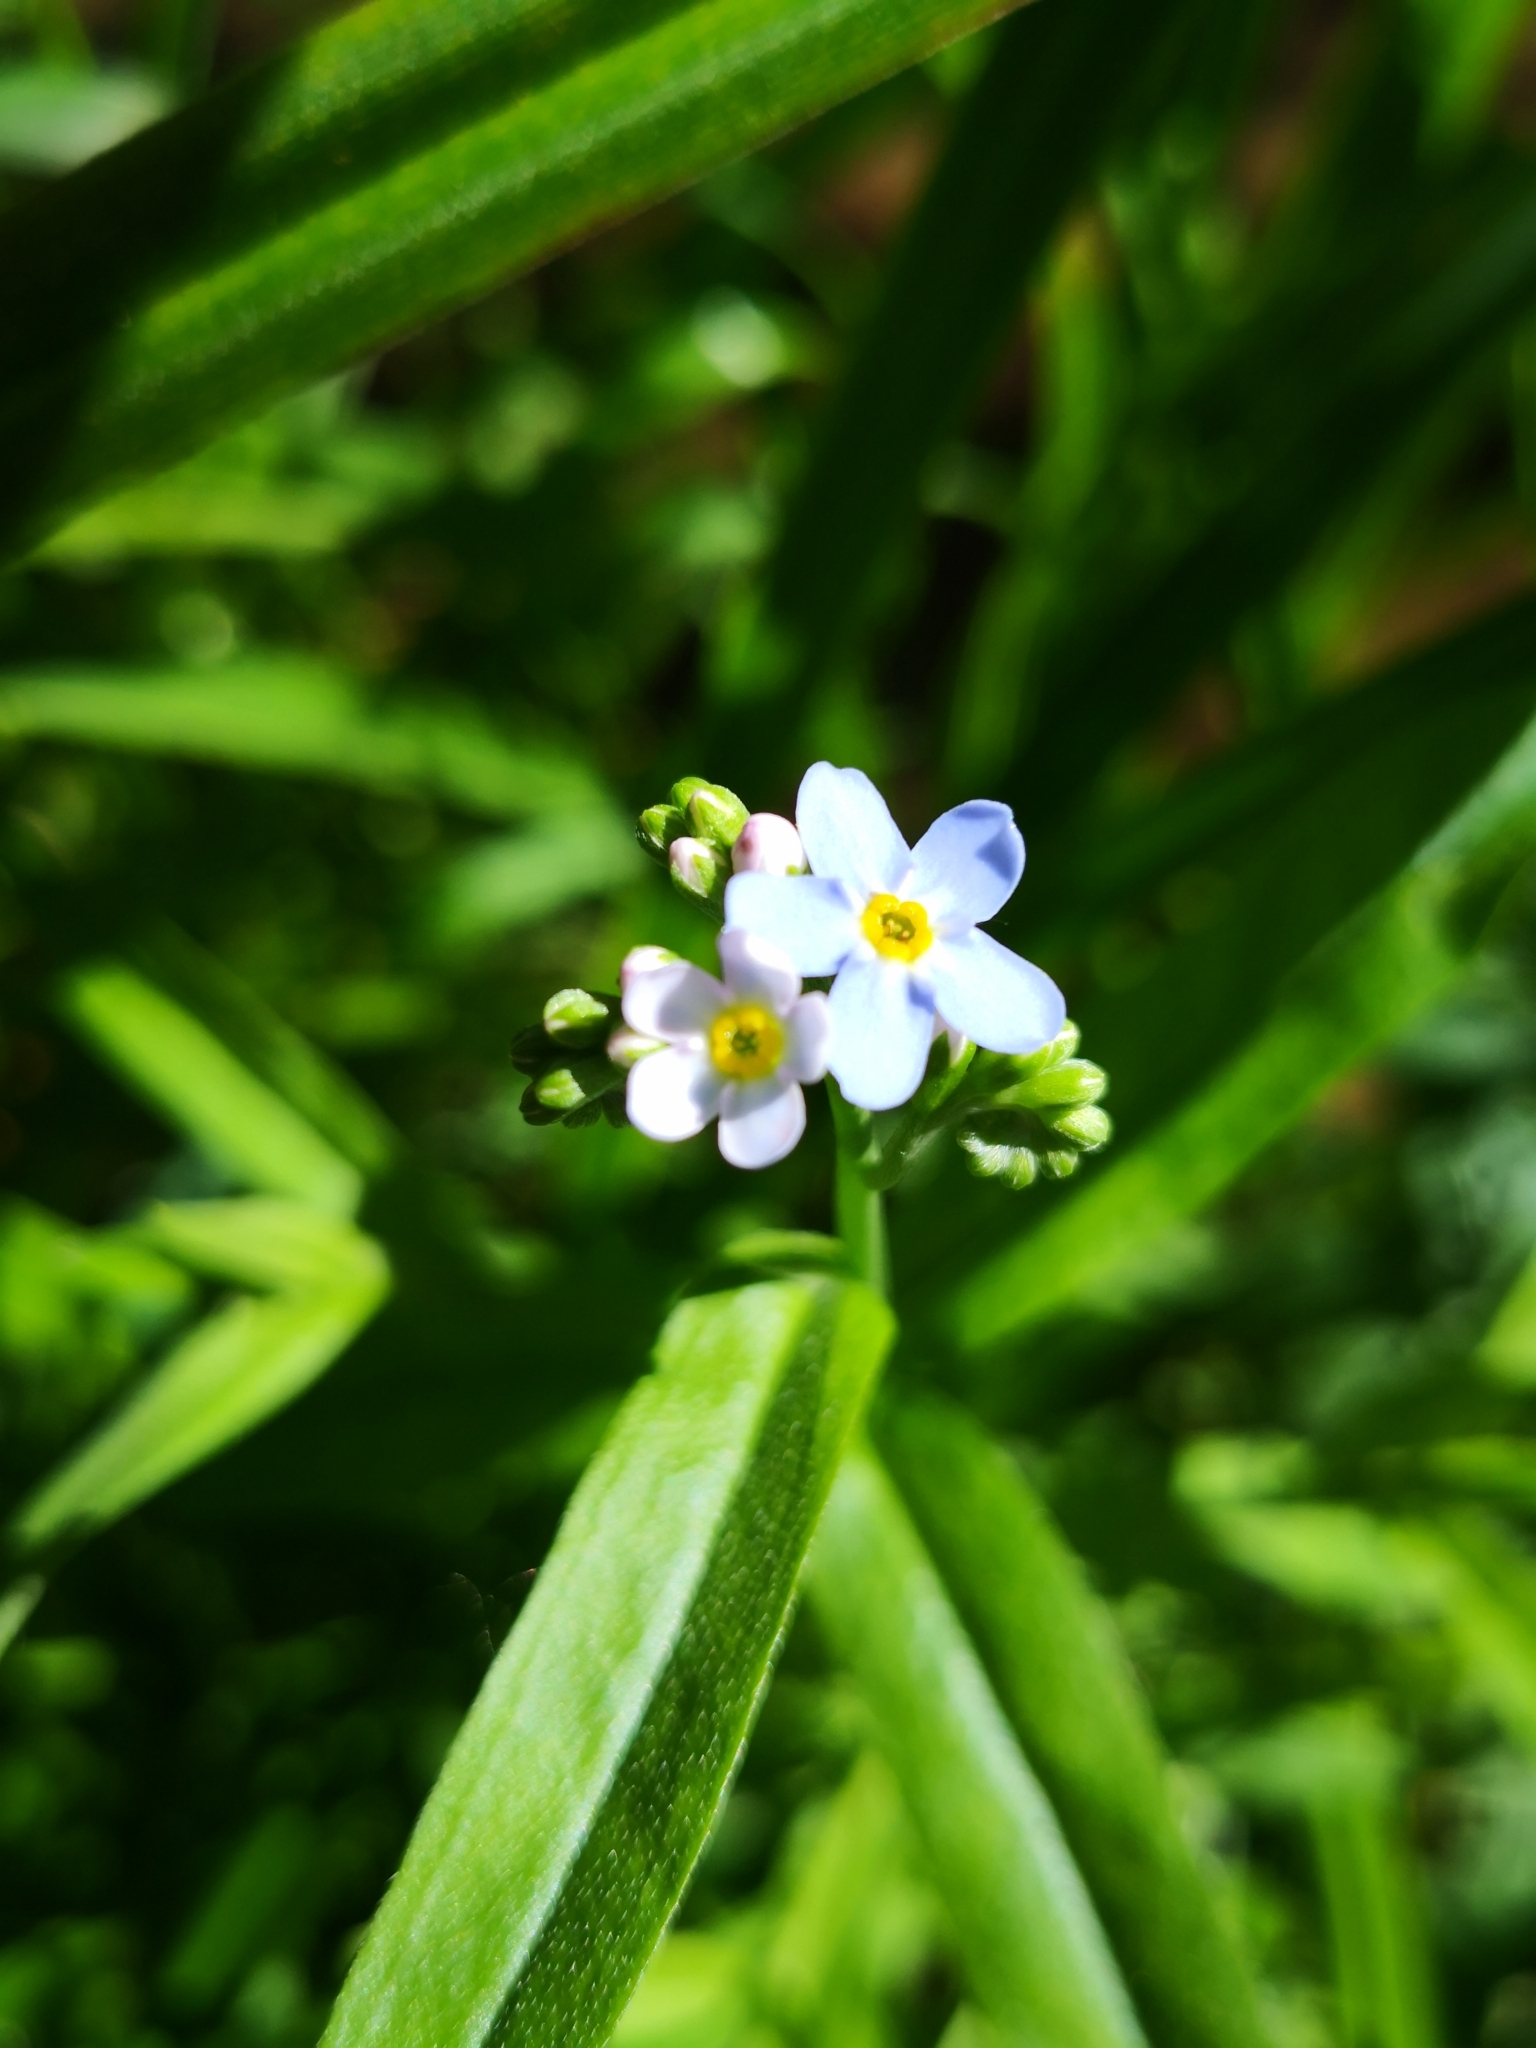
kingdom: Plantae
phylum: Tracheophyta
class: Magnoliopsida
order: Boraginales
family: Boraginaceae
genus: Myosotis
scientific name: Myosotis scorpioides
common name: Water forget-me-not
